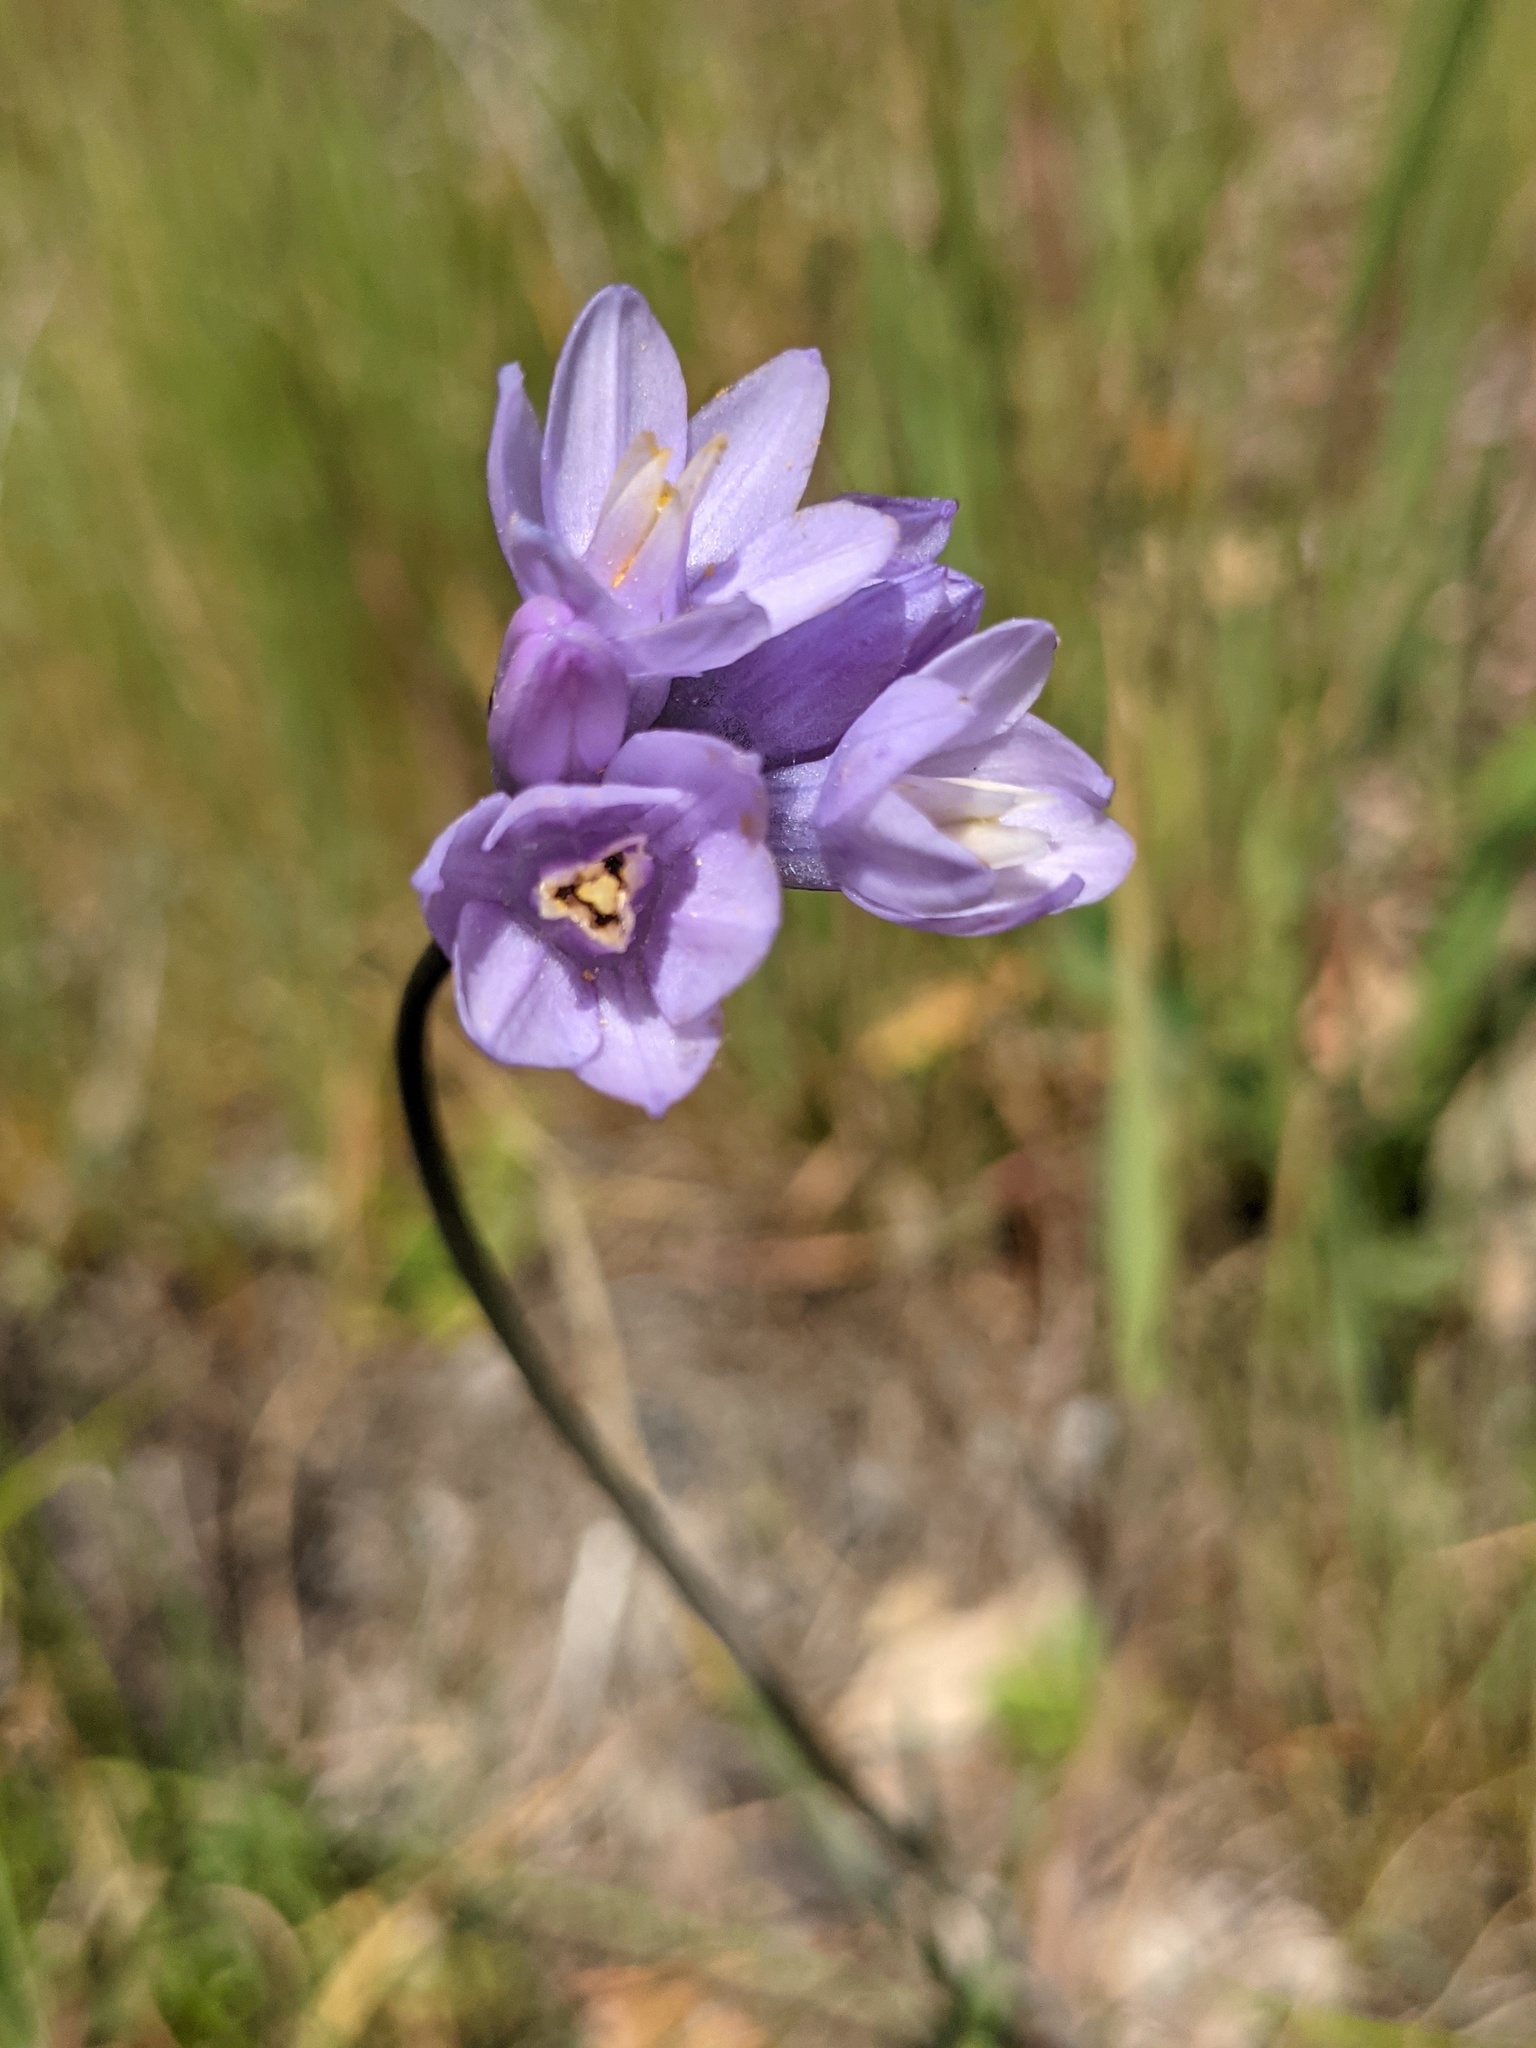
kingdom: Plantae
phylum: Tracheophyta
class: Liliopsida
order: Asparagales
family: Asparagaceae
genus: Dipterostemon
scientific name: Dipterostemon capitatus
